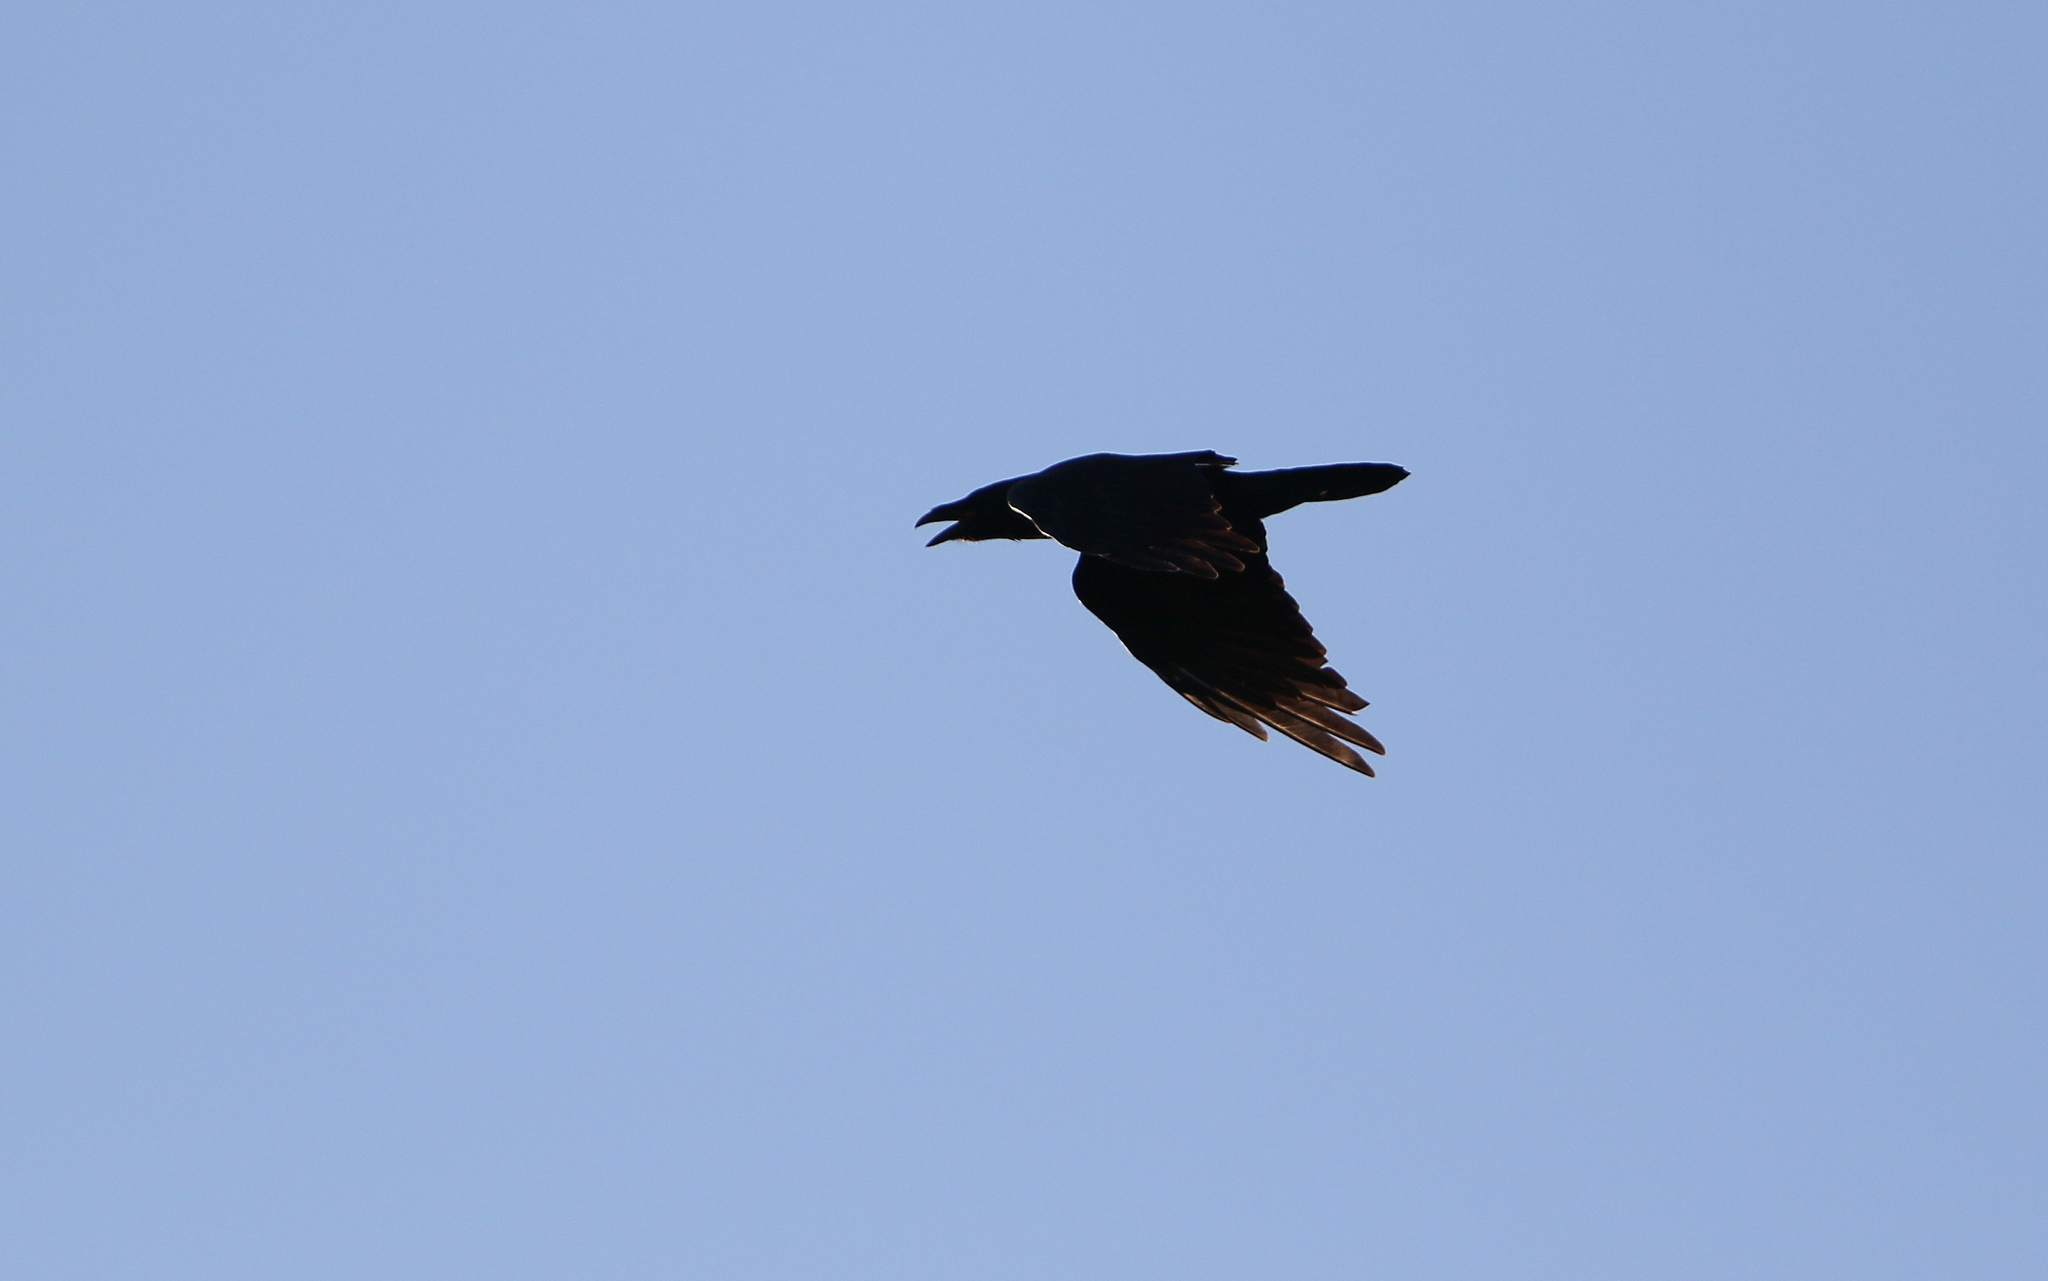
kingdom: Animalia
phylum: Chordata
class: Aves
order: Passeriformes
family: Corvidae
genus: Corvus
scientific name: Corvus corax
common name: Common raven
